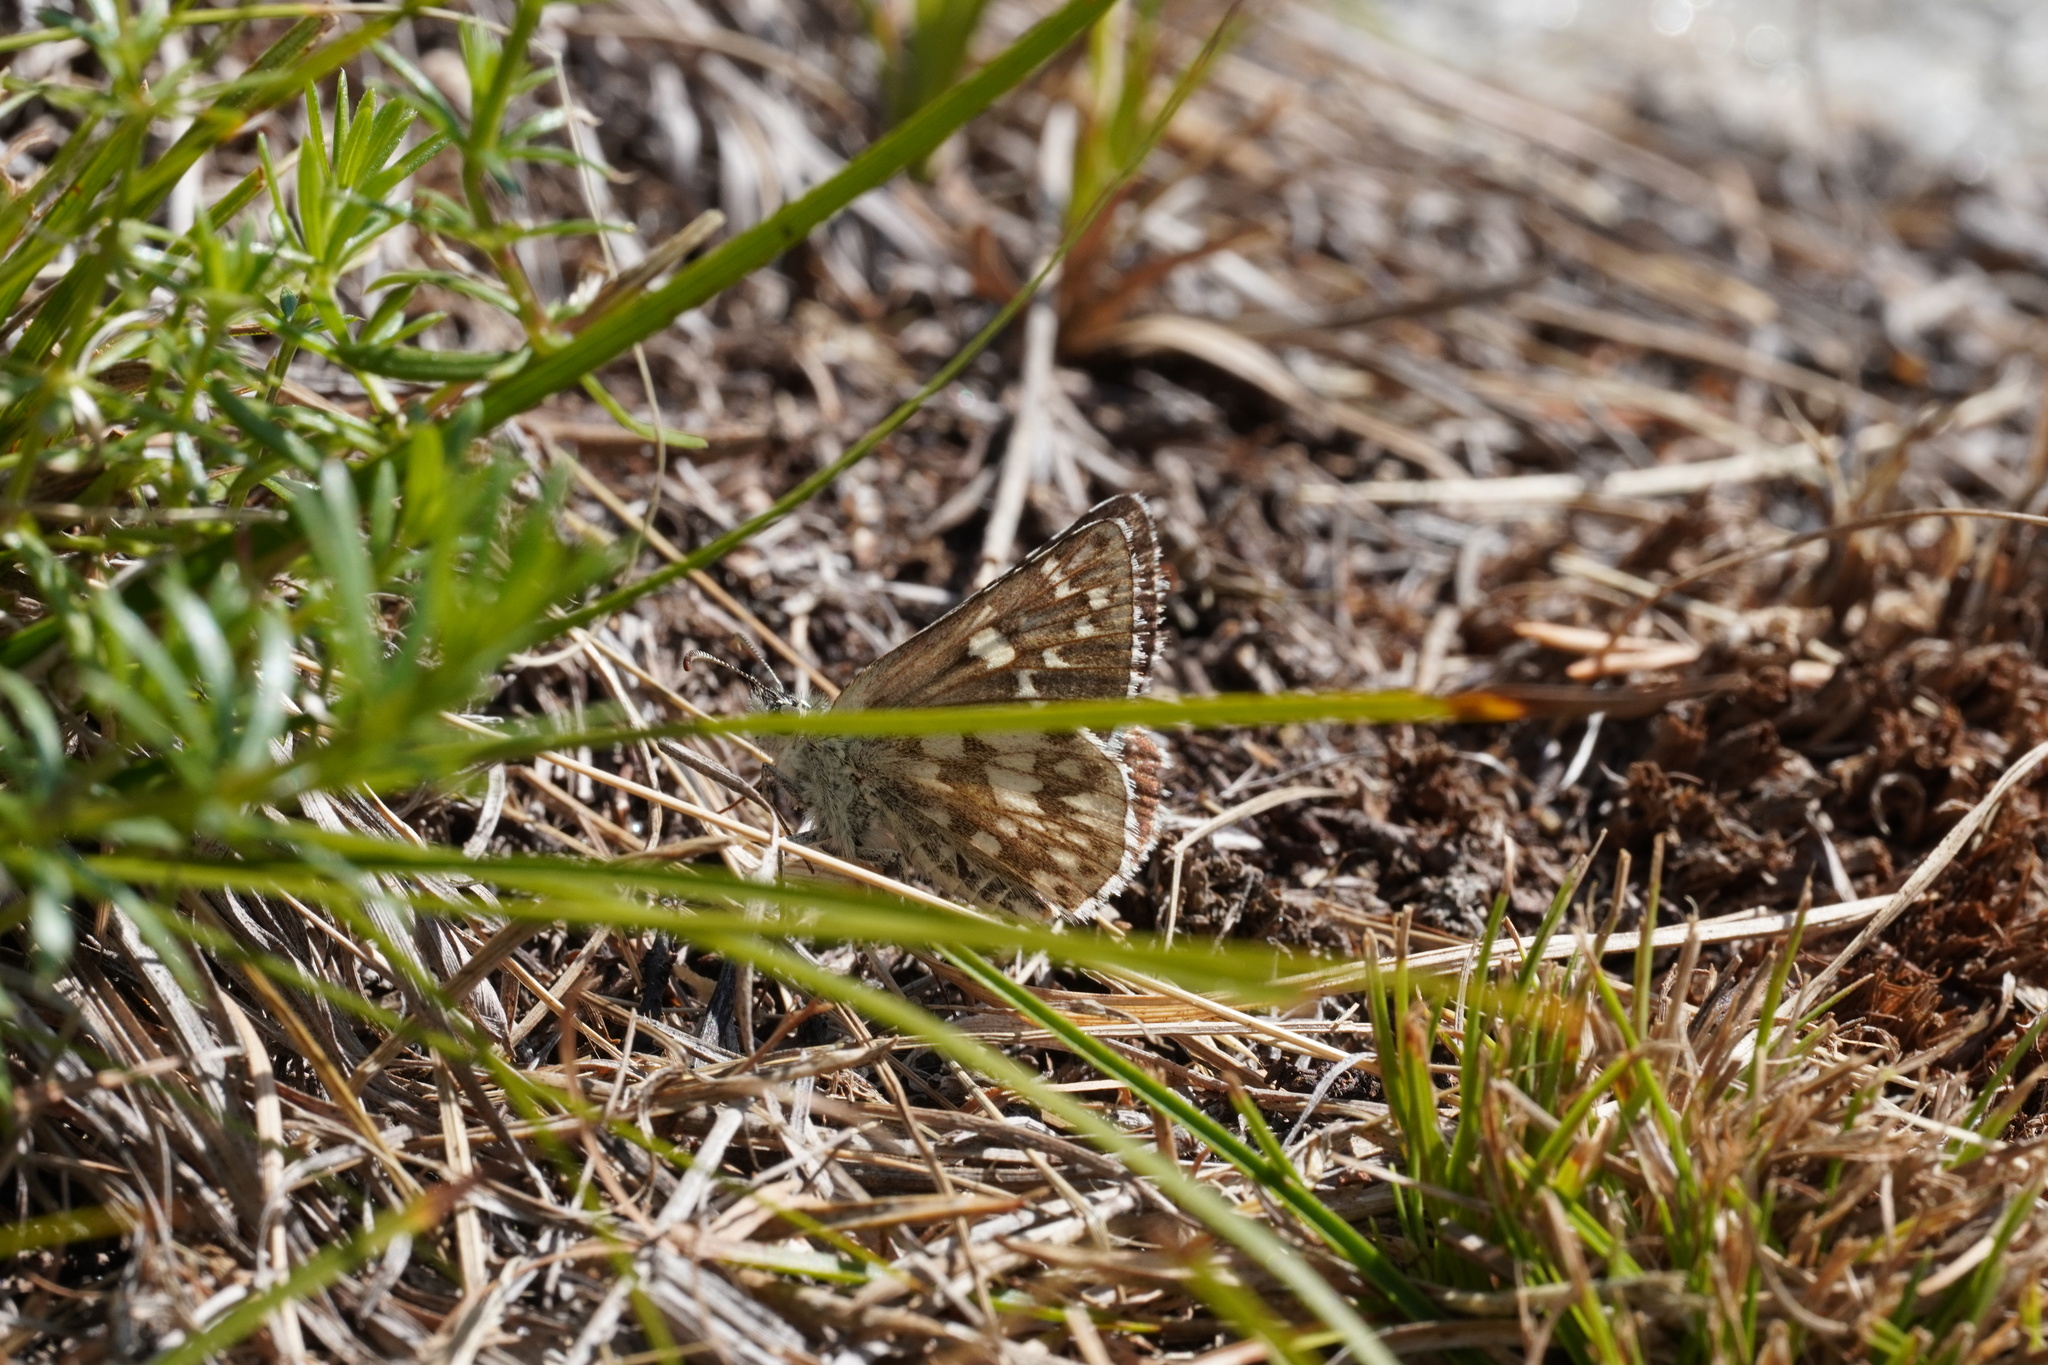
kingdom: Animalia
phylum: Arthropoda
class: Insecta
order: Lepidoptera
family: Hesperiidae
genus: Pyrgus
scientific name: Pyrgus fritillarius
